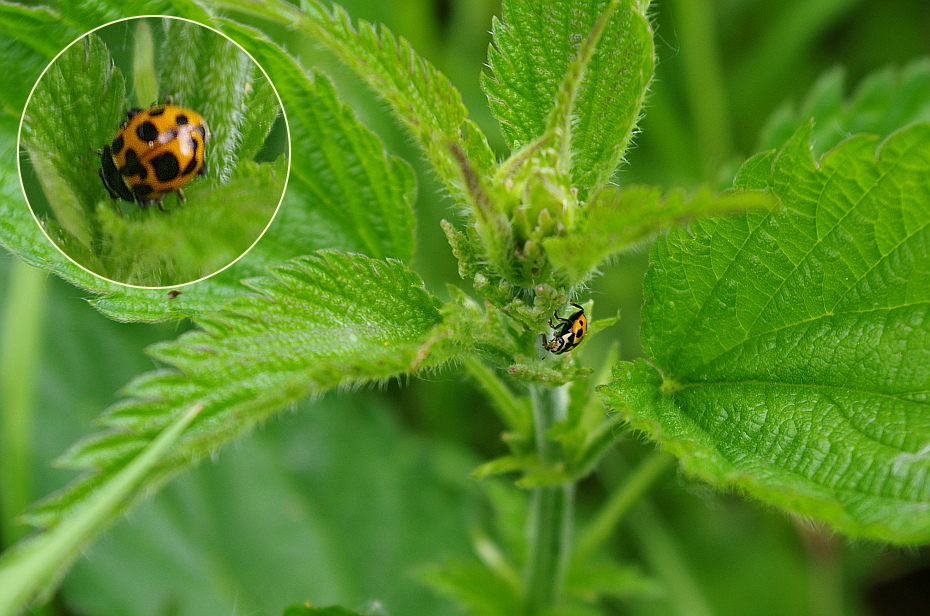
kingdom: Animalia
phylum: Arthropoda
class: Insecta
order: Coleoptera
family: Coccinellidae
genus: Ceratomegilla
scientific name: Ceratomegilla notata
